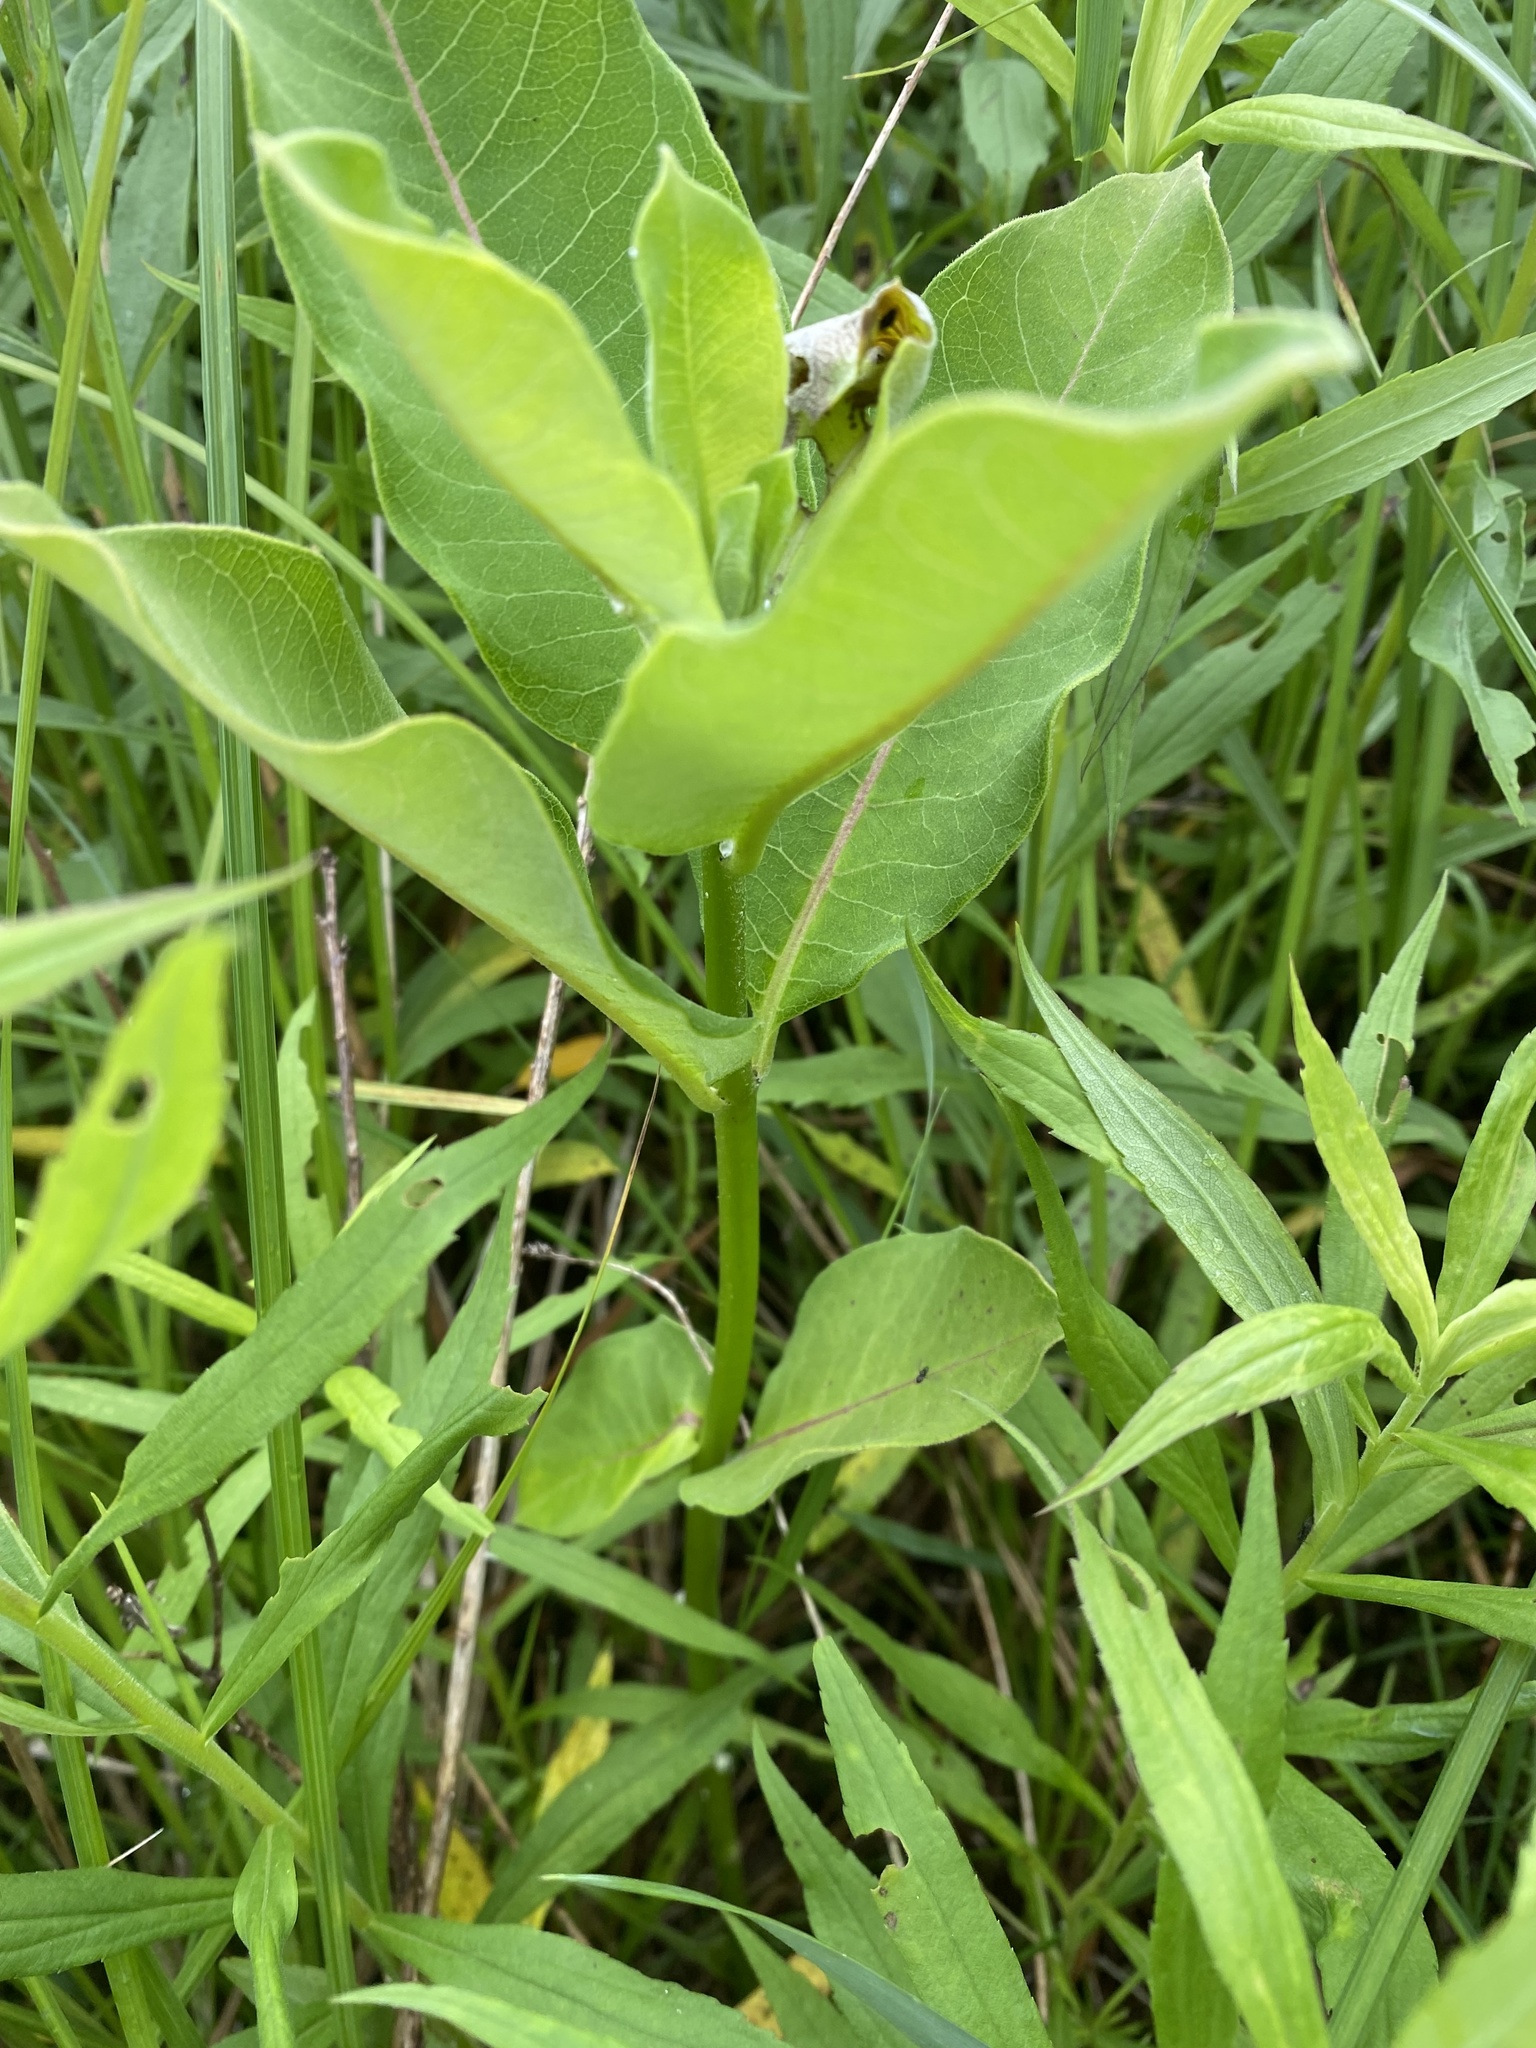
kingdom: Plantae
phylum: Tracheophyta
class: Magnoliopsida
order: Gentianales
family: Apocynaceae
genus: Asclepias
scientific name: Asclepias syriaca
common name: Common milkweed
